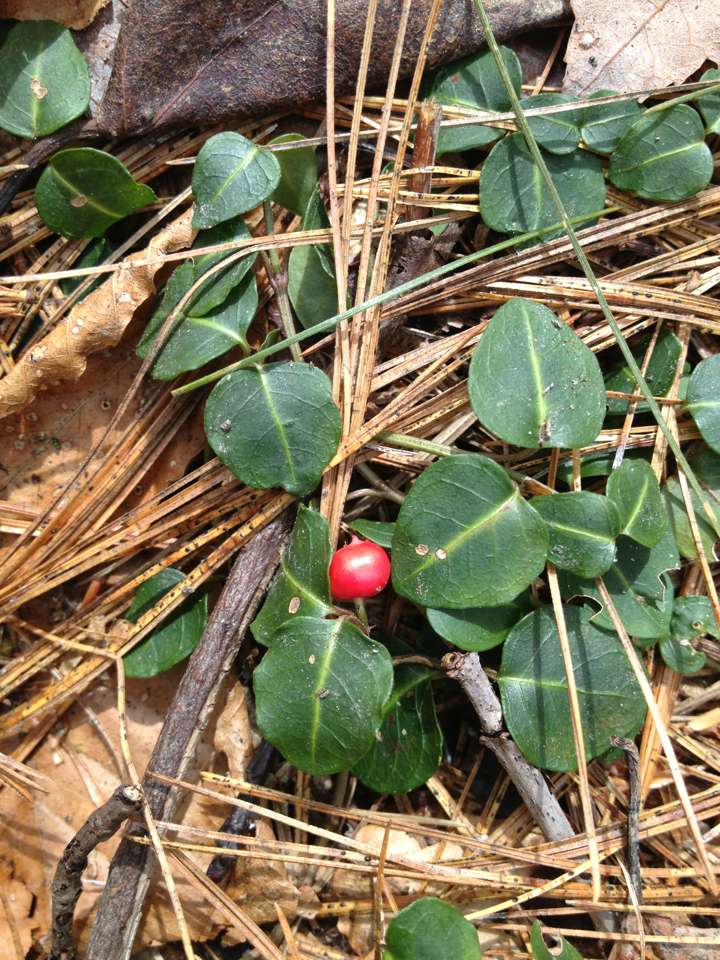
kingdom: Plantae
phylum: Tracheophyta
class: Magnoliopsida
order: Gentianales
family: Rubiaceae
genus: Mitchella
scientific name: Mitchella repens
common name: Partridge-berry
